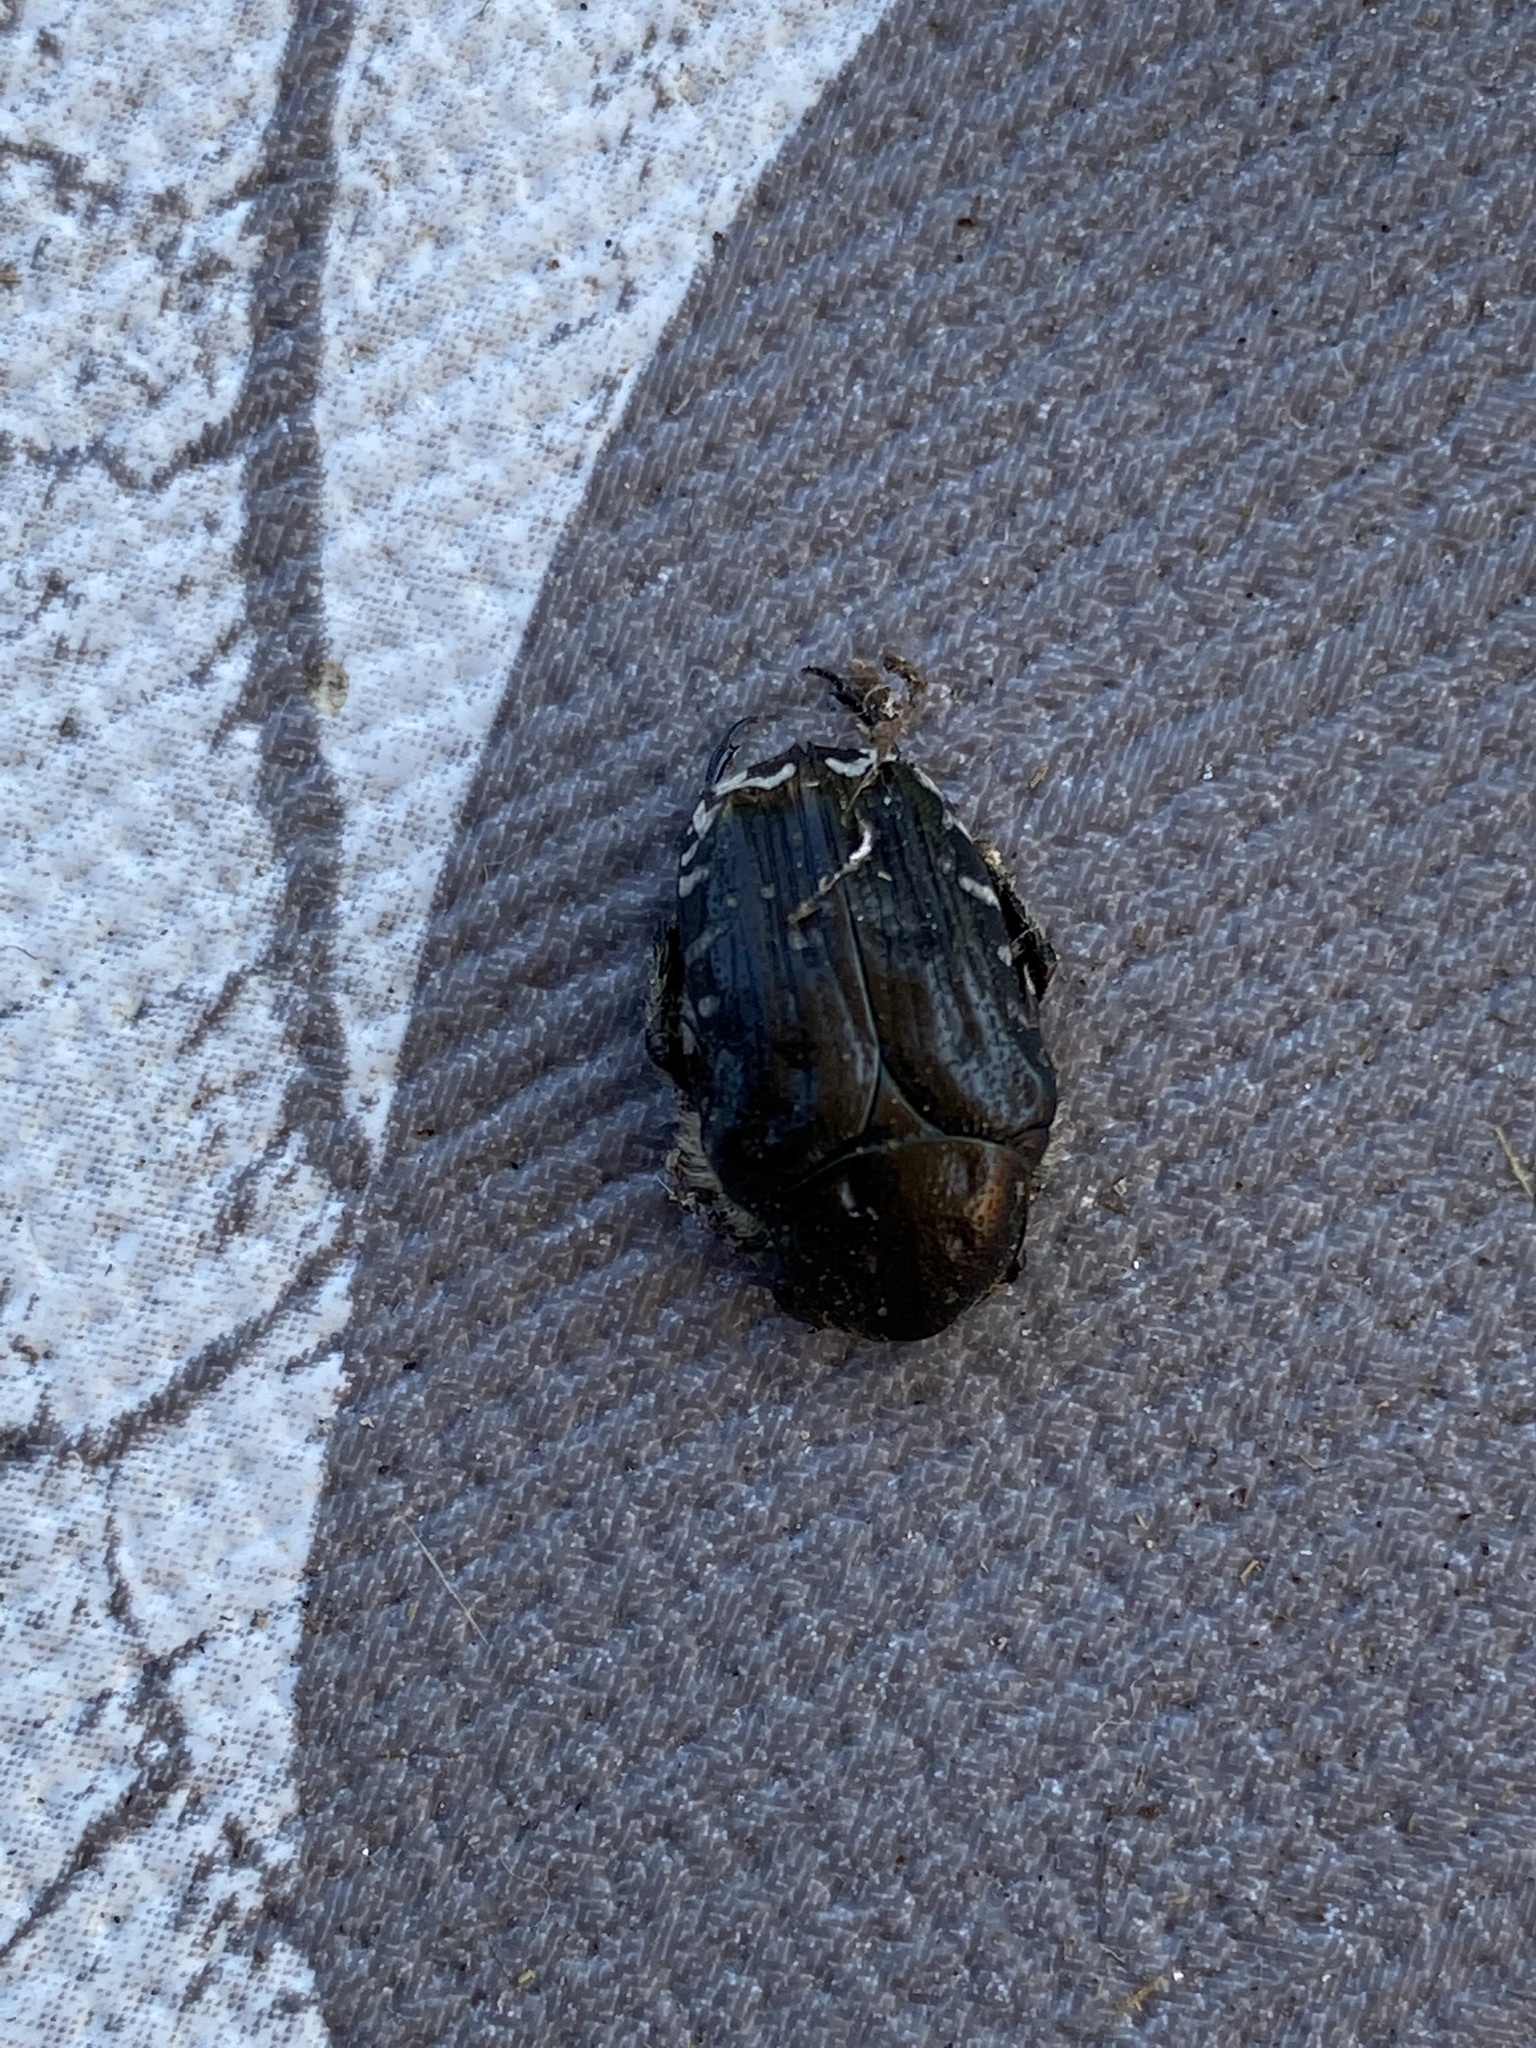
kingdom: Animalia
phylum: Arthropoda
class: Insecta
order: Coleoptera
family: Scarabaeidae
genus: Oxythyrea
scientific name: Oxythyrea funesta
